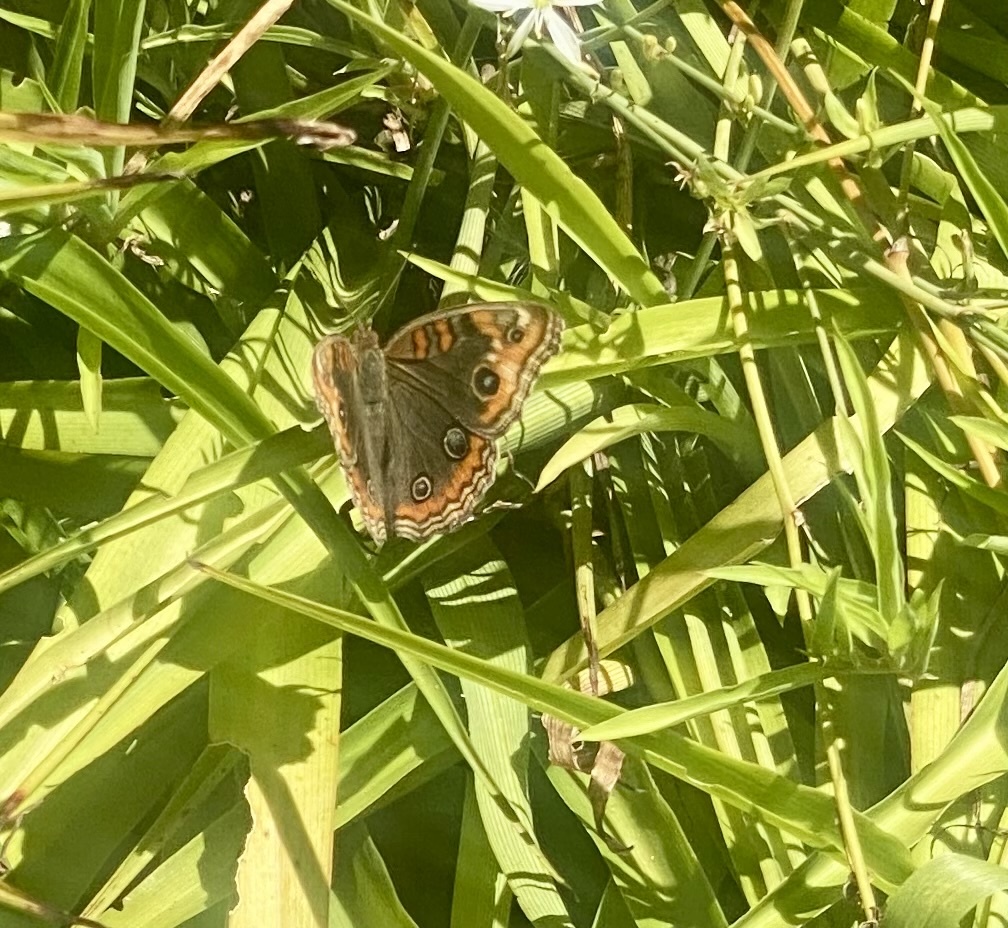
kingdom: Animalia
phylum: Arthropoda
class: Insecta
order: Lepidoptera
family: Nymphalidae
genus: Junonia
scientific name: Junonia lavinia
